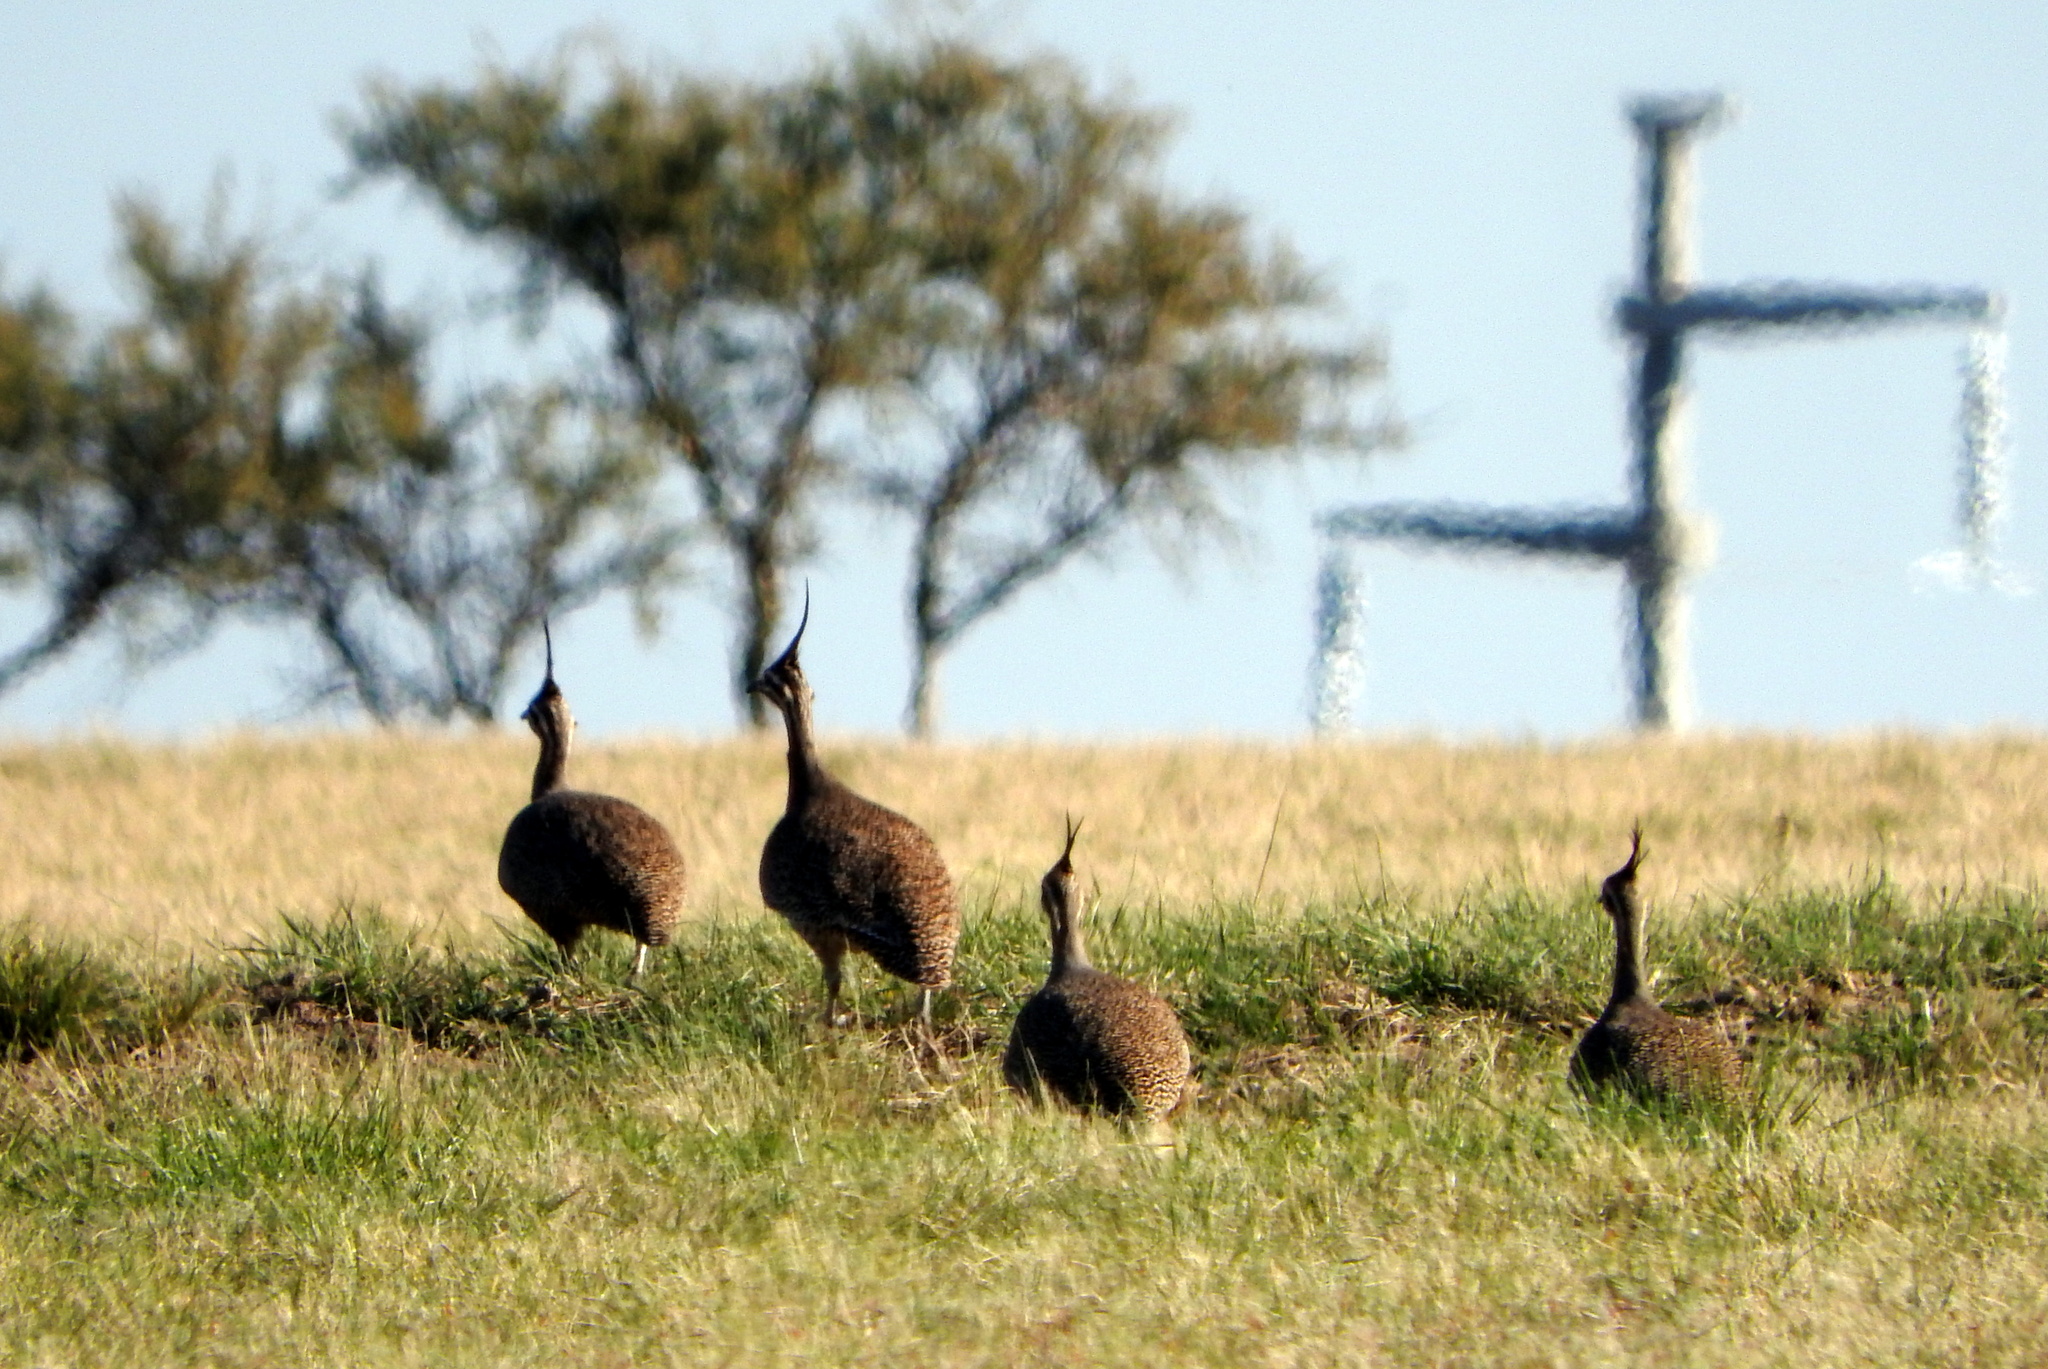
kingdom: Animalia
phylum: Chordata
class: Aves
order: Tinamiformes
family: Tinamidae
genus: Eudromia
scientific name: Eudromia elegans
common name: Elegant crested tinamou
